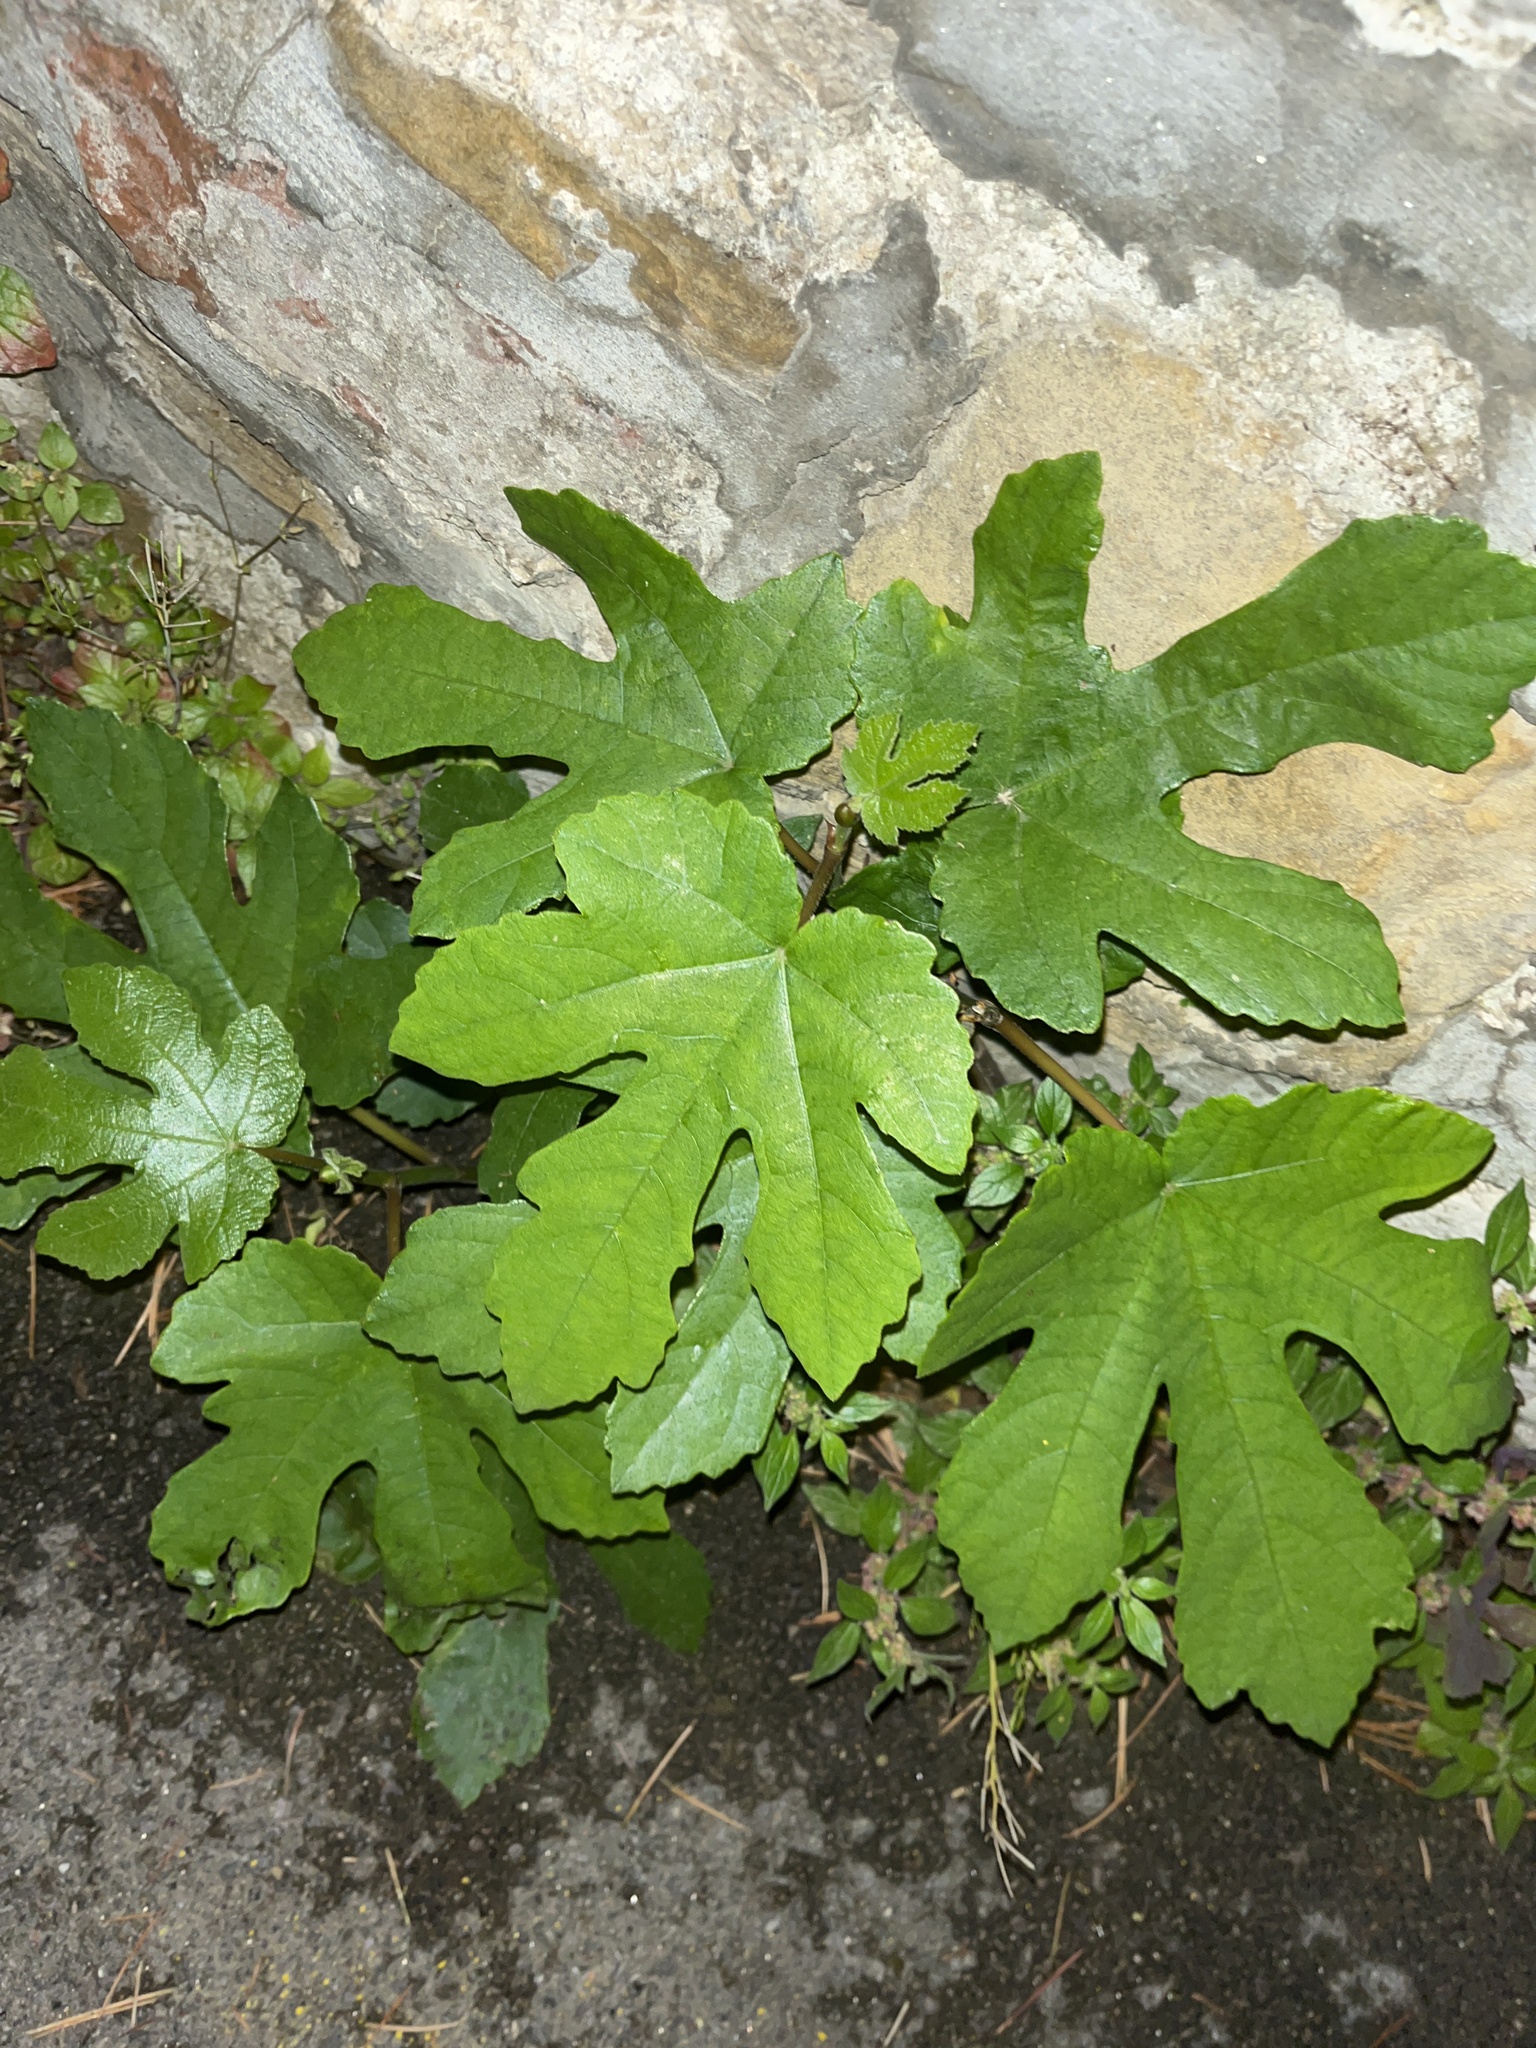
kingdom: Plantae
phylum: Tracheophyta
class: Magnoliopsida
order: Rosales
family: Moraceae
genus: Ficus
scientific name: Ficus carica
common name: Fig
